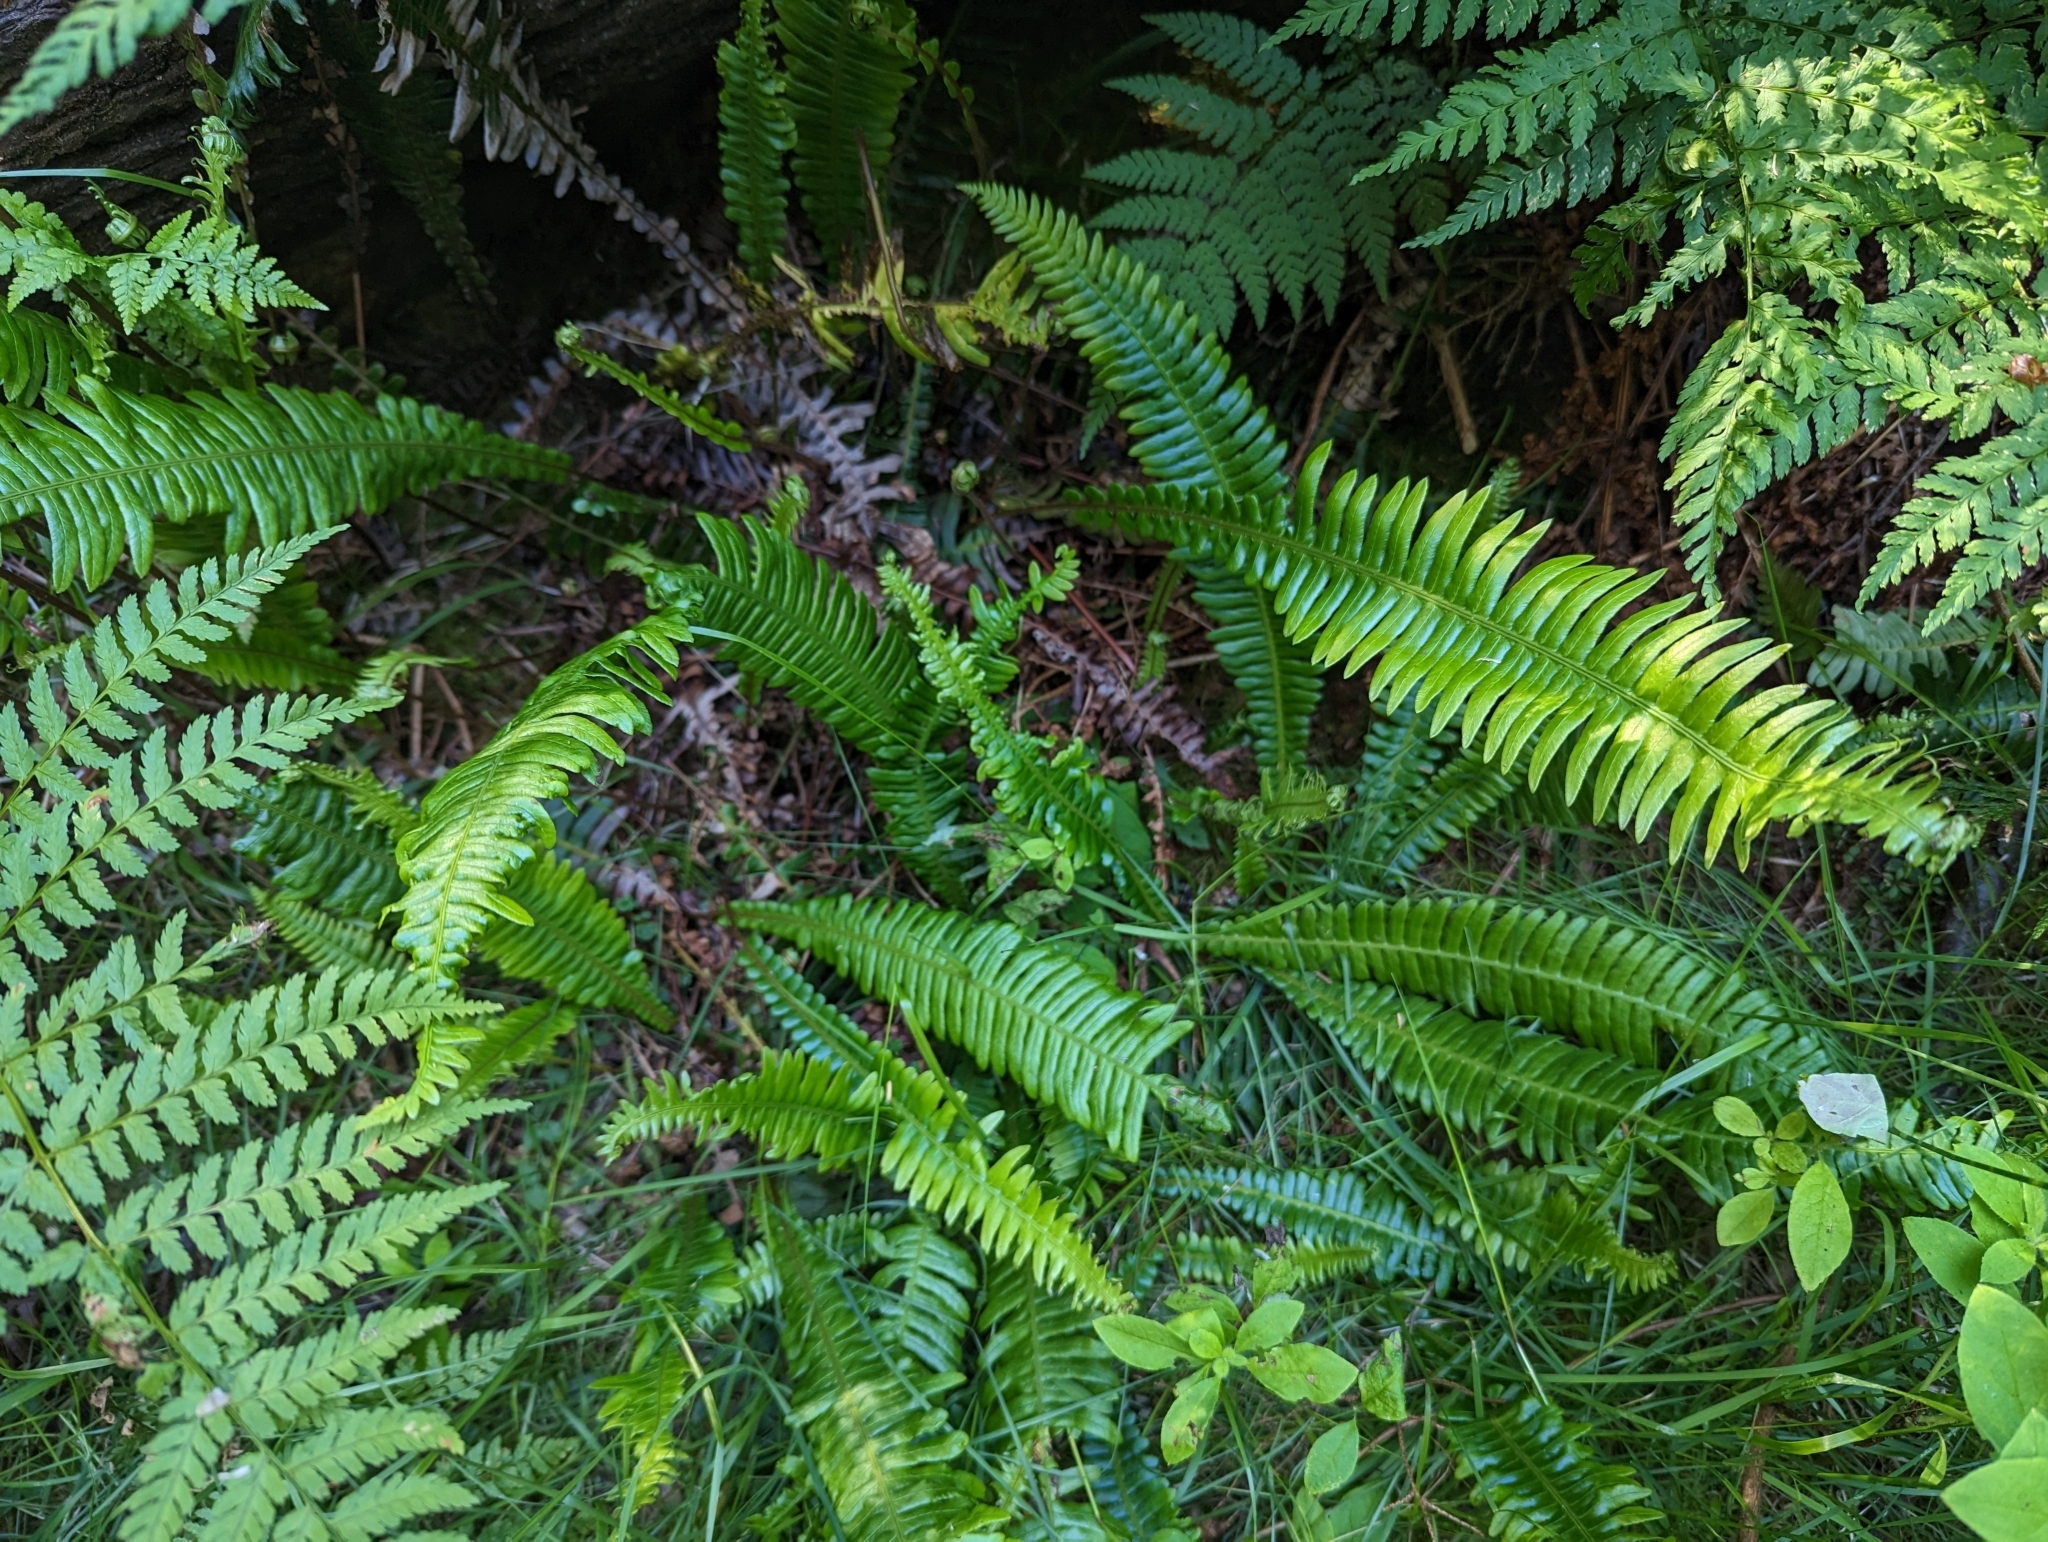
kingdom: Plantae
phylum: Tracheophyta
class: Polypodiopsida
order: Polypodiales
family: Blechnaceae
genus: Struthiopteris
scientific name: Struthiopteris spicant
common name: Deer fern
